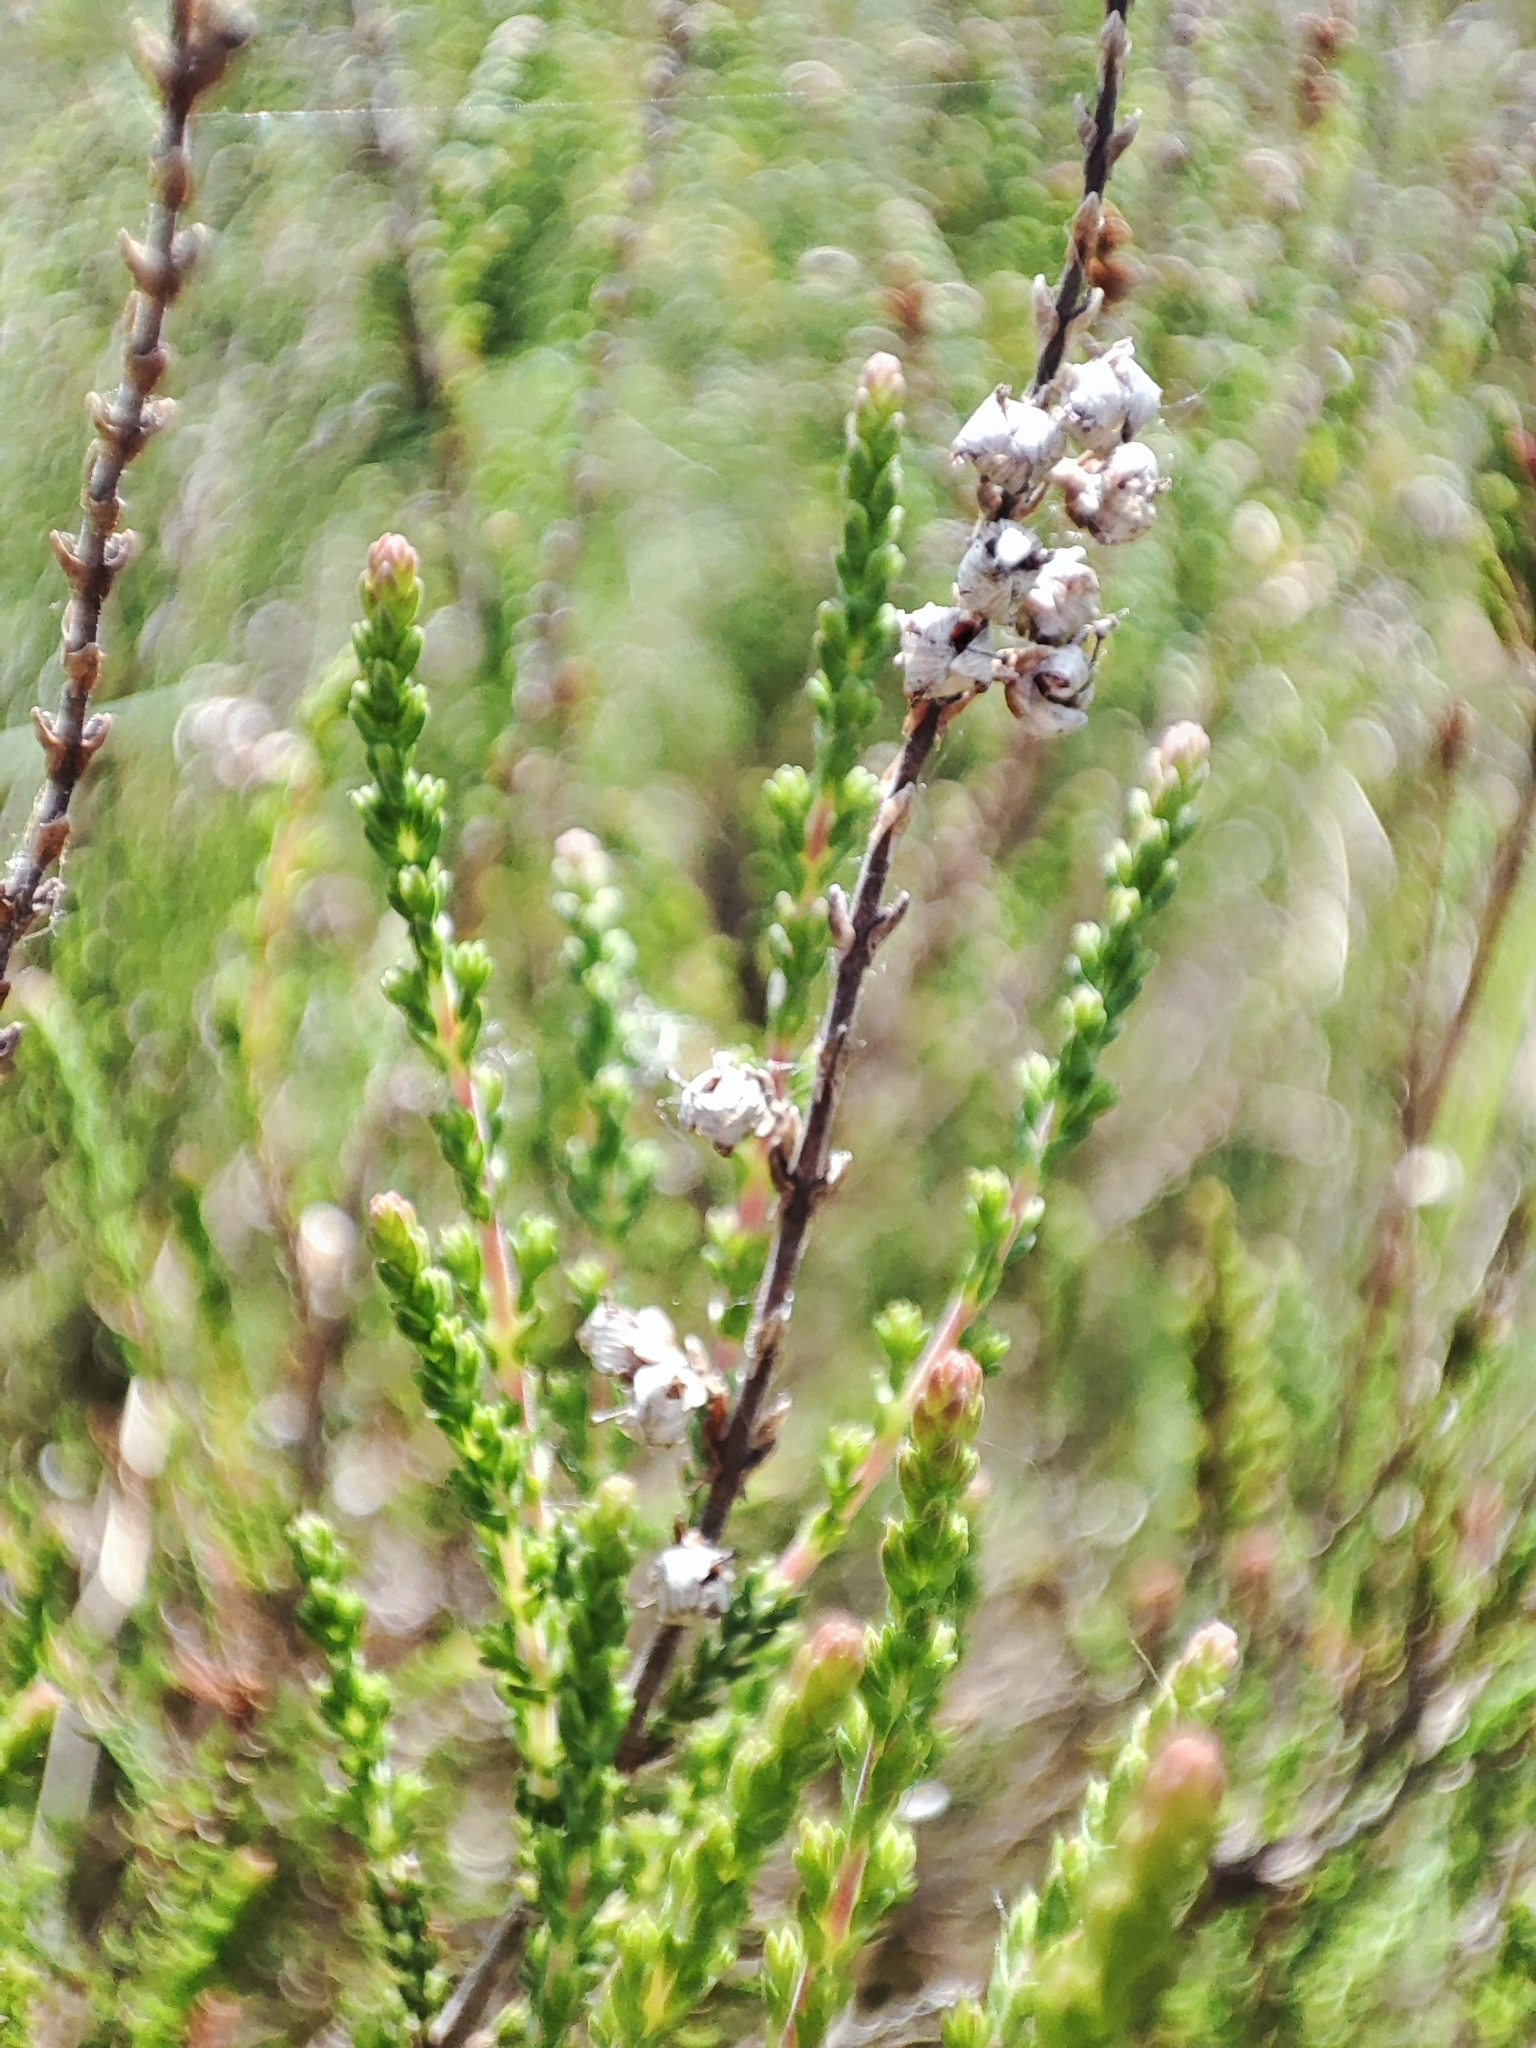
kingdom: Plantae
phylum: Tracheophyta
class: Magnoliopsida
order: Ericales
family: Ericaceae
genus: Calluna
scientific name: Calluna vulgaris
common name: Heather
